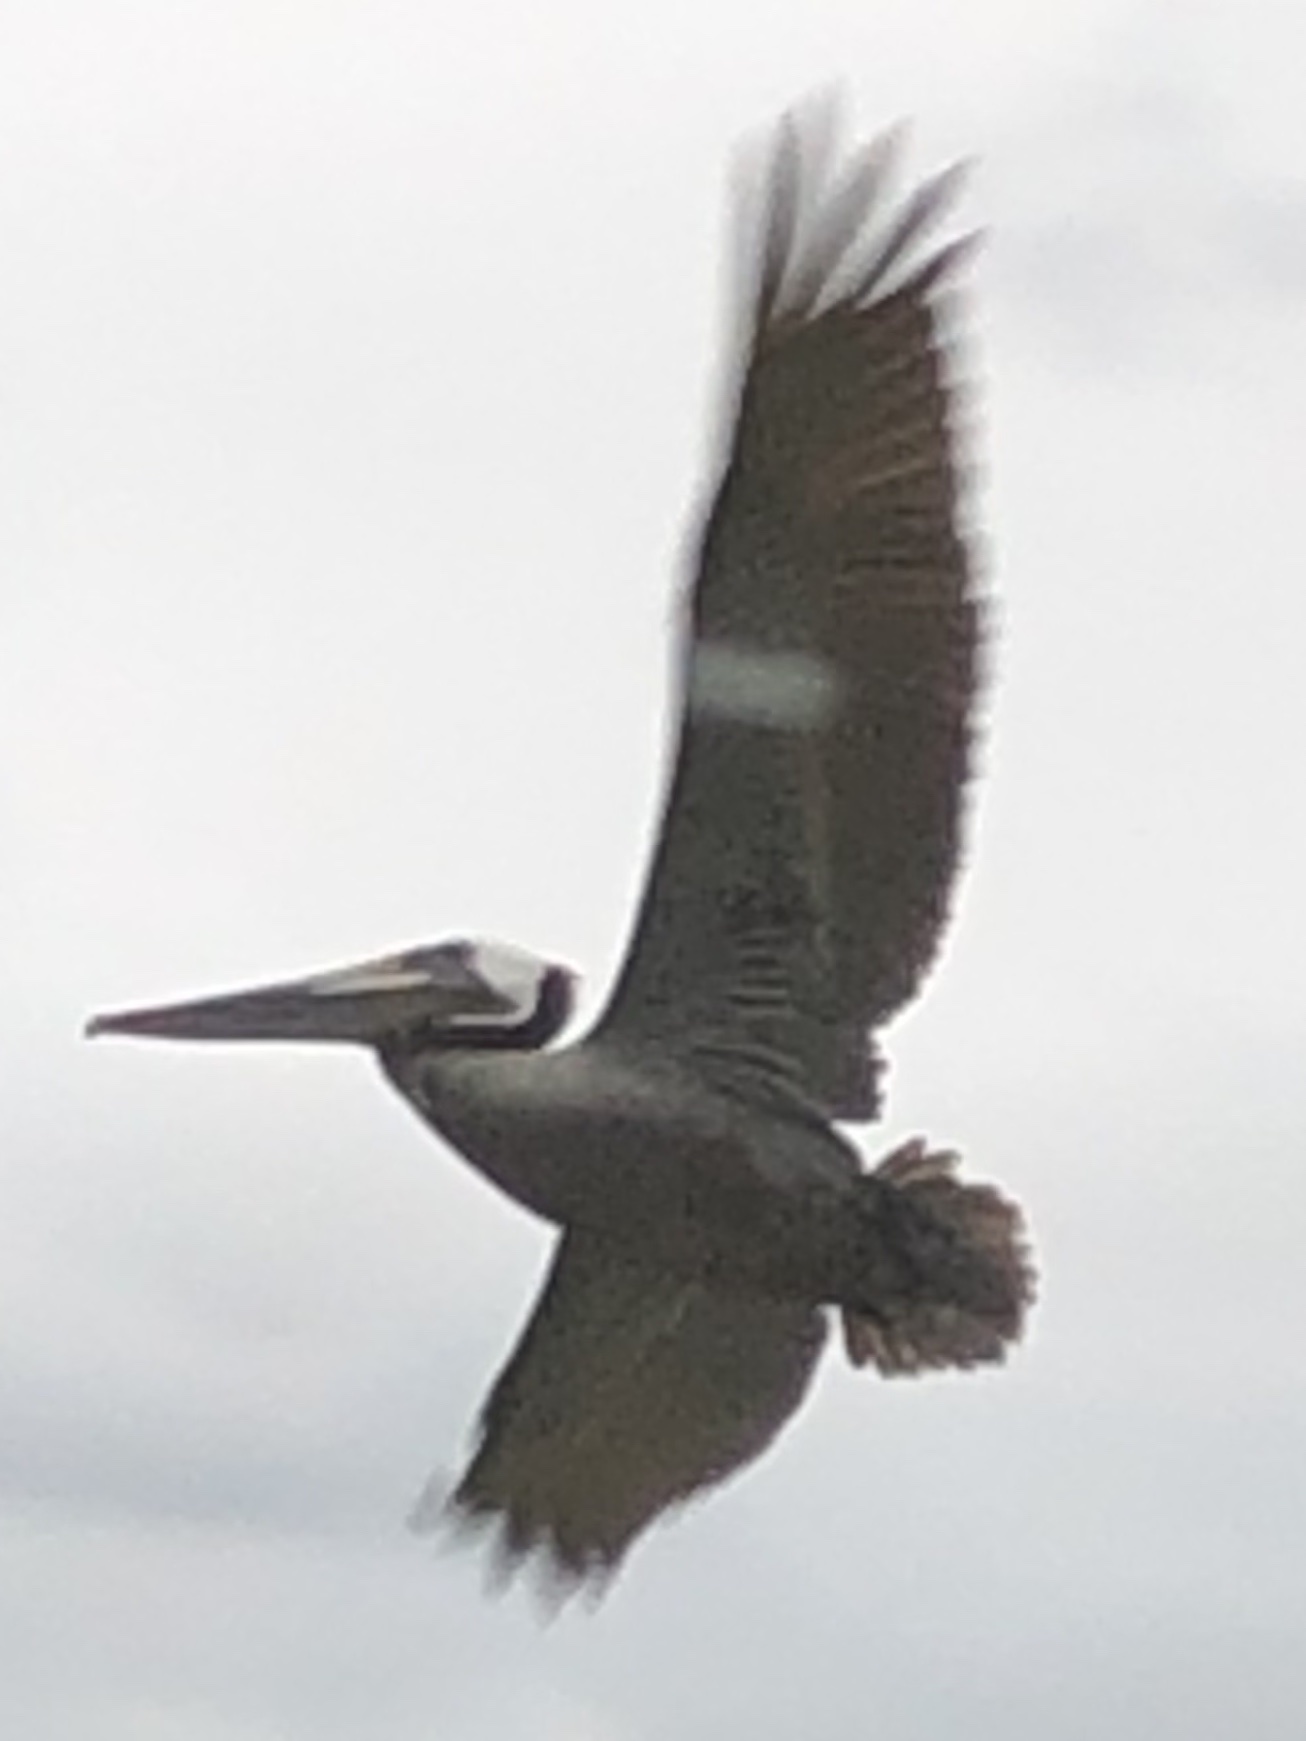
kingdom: Animalia
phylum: Chordata
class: Aves
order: Pelecaniformes
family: Pelecanidae
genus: Pelecanus
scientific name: Pelecanus occidentalis
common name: Brown pelican
